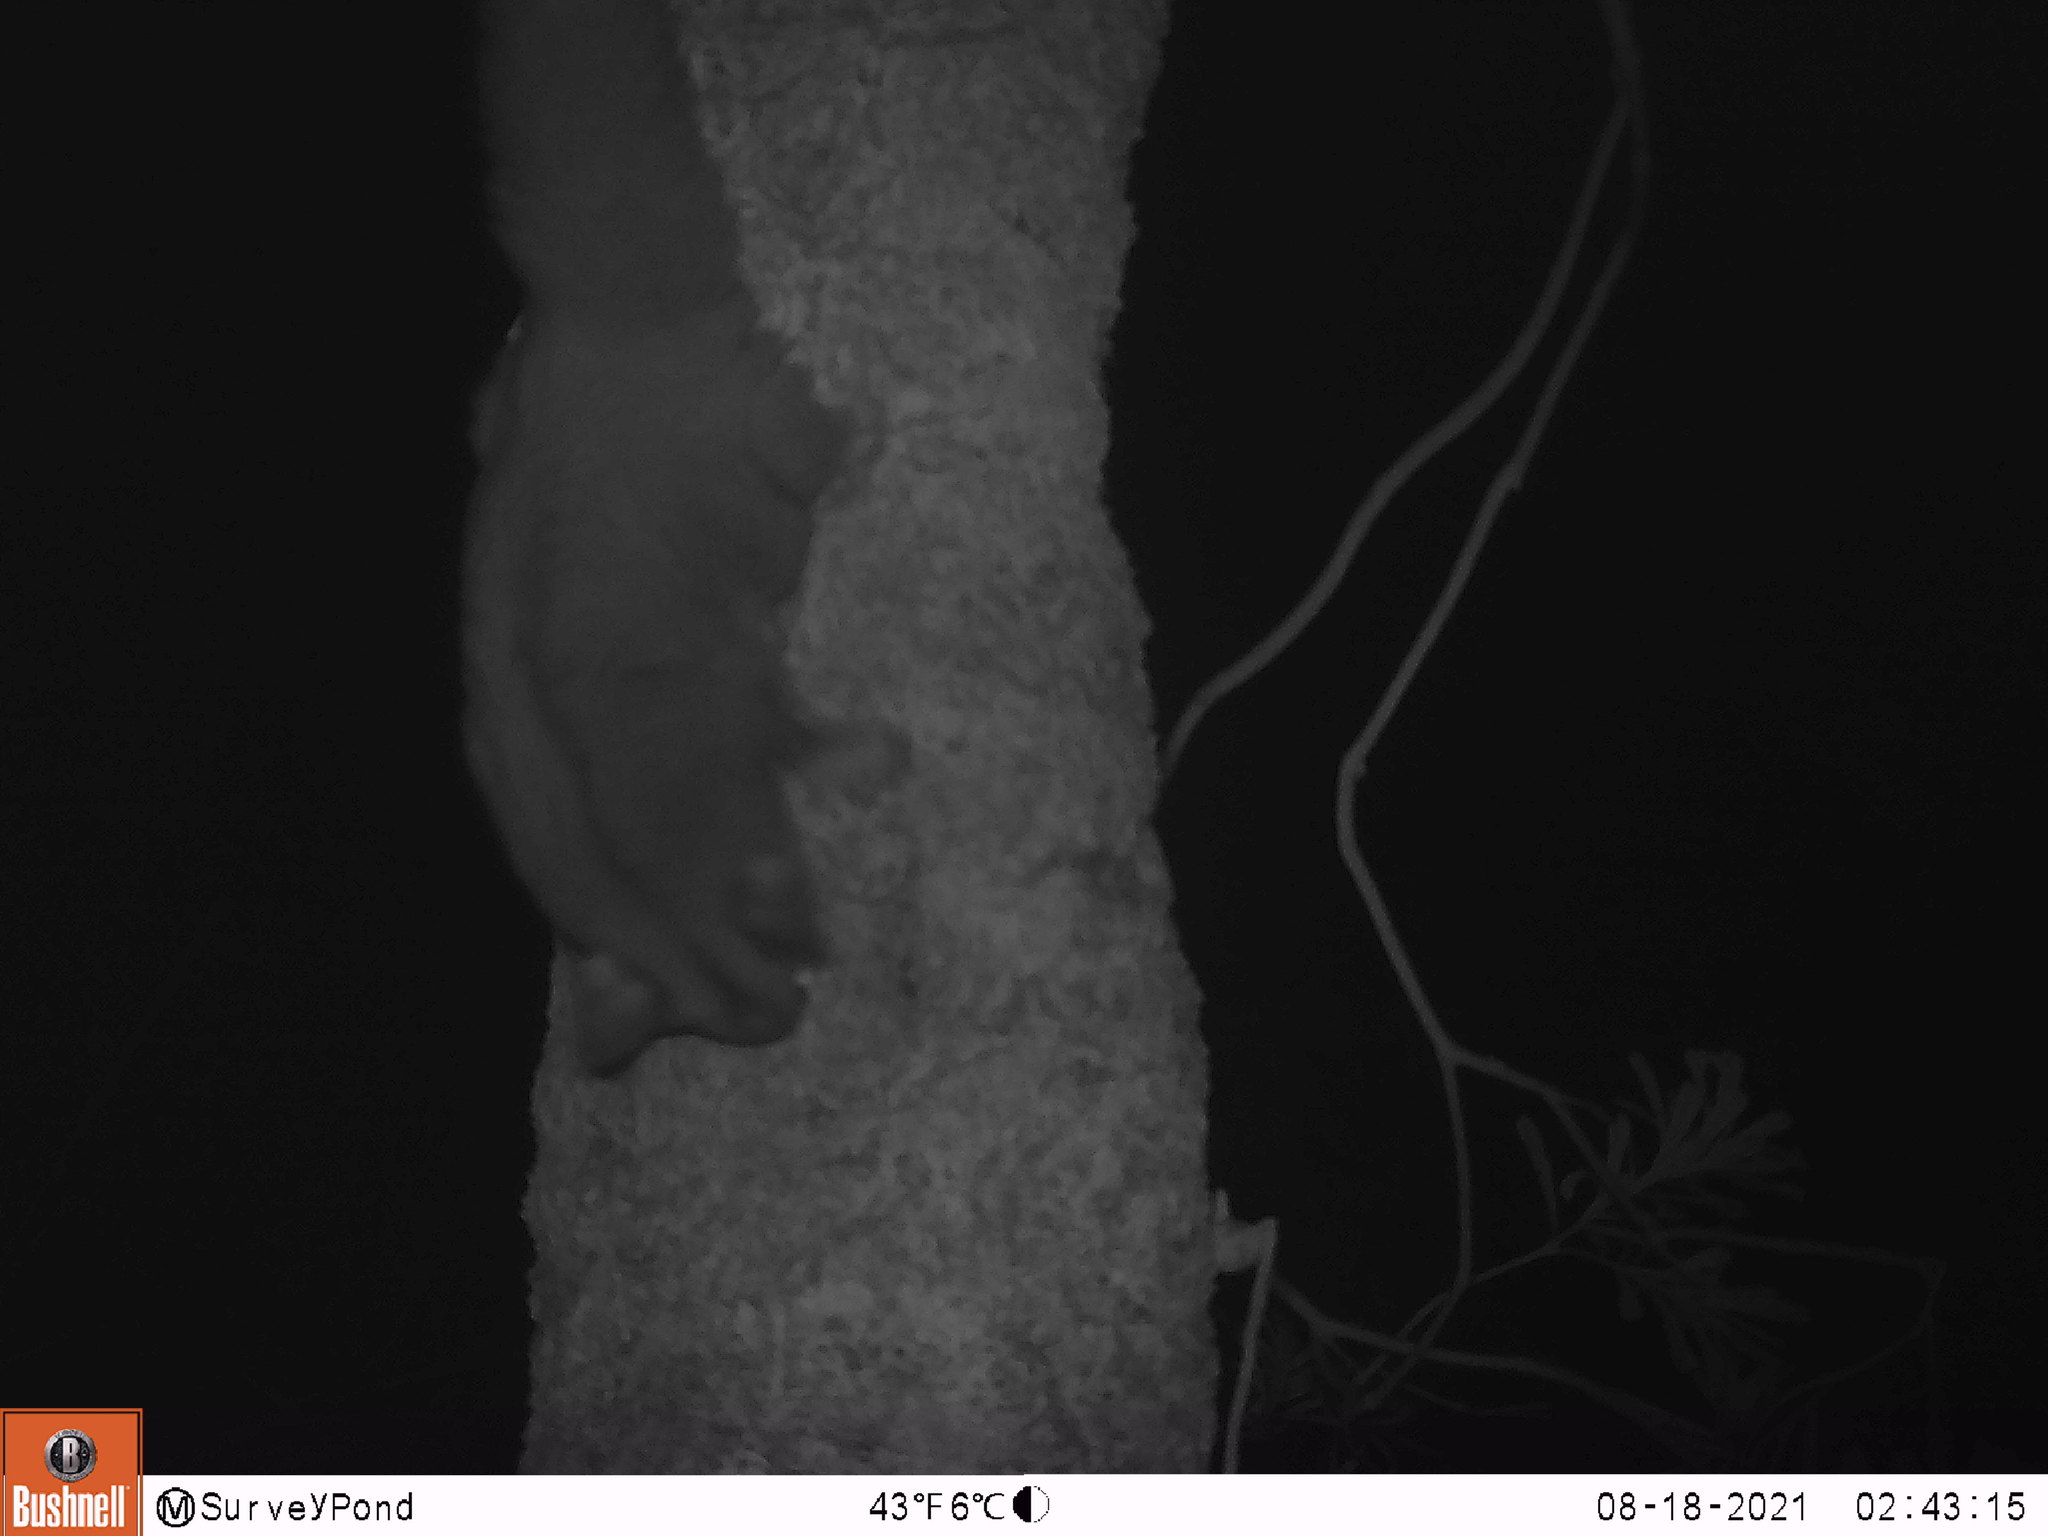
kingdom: Animalia
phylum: Chordata
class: Mammalia
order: Diprotodontia
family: Petauridae
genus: Petaurus
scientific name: Petaurus breviceps
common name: Sugar glider
